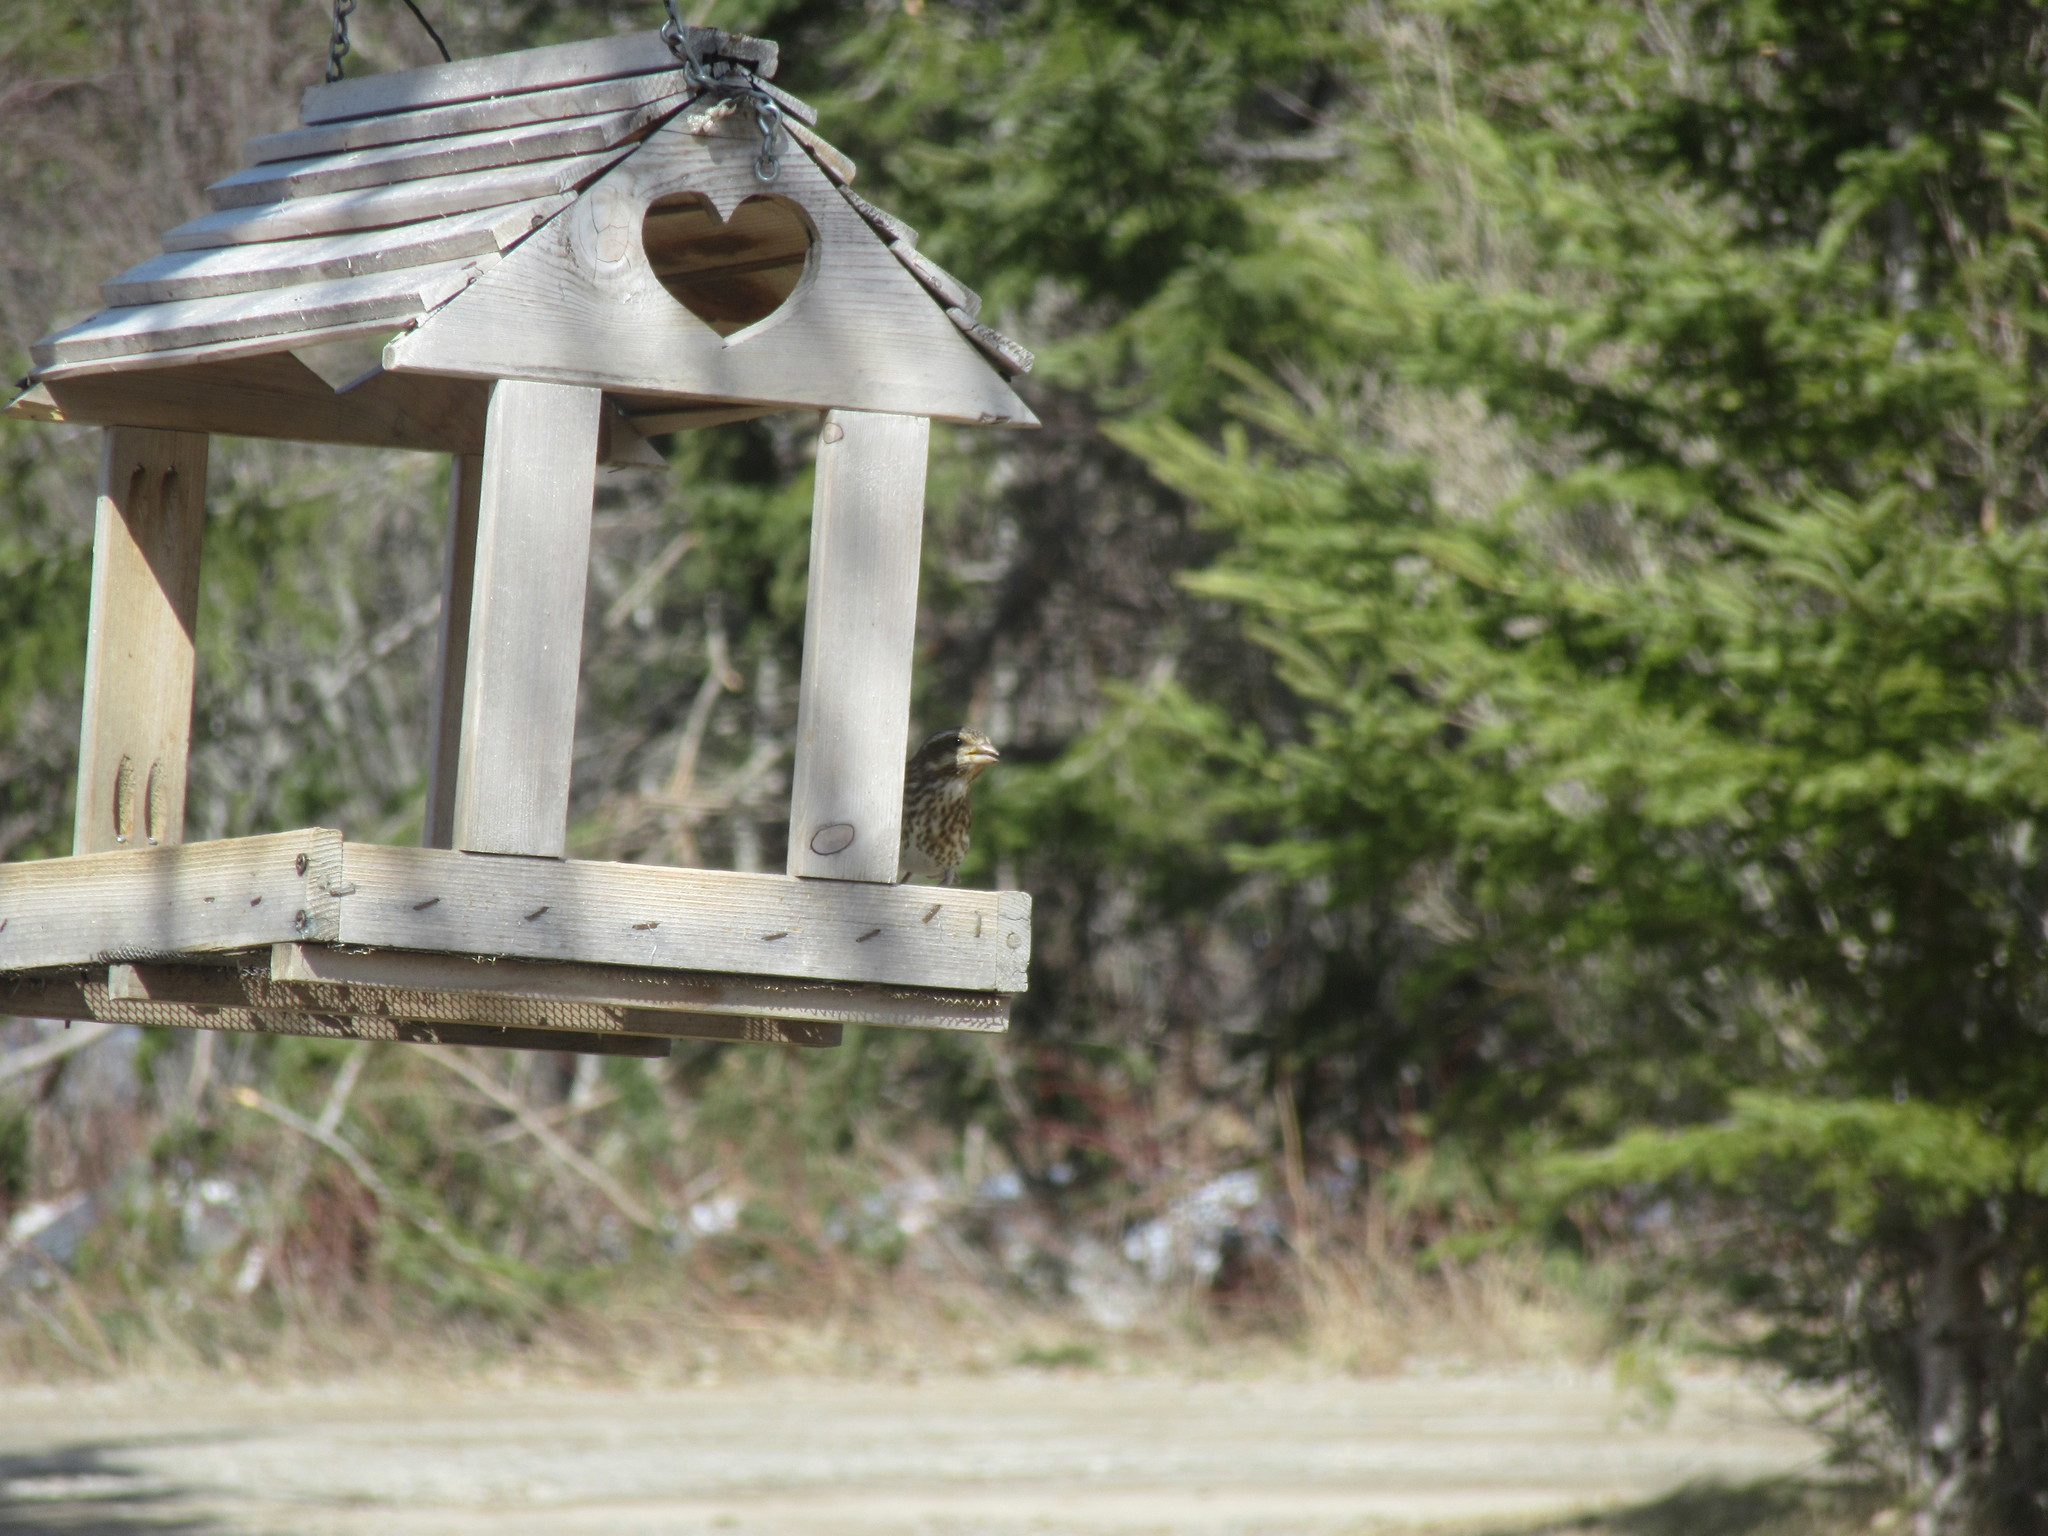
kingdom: Animalia
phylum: Chordata
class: Aves
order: Passeriformes
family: Fringillidae
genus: Haemorhous
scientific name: Haemorhous purpureus
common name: Purple finch
